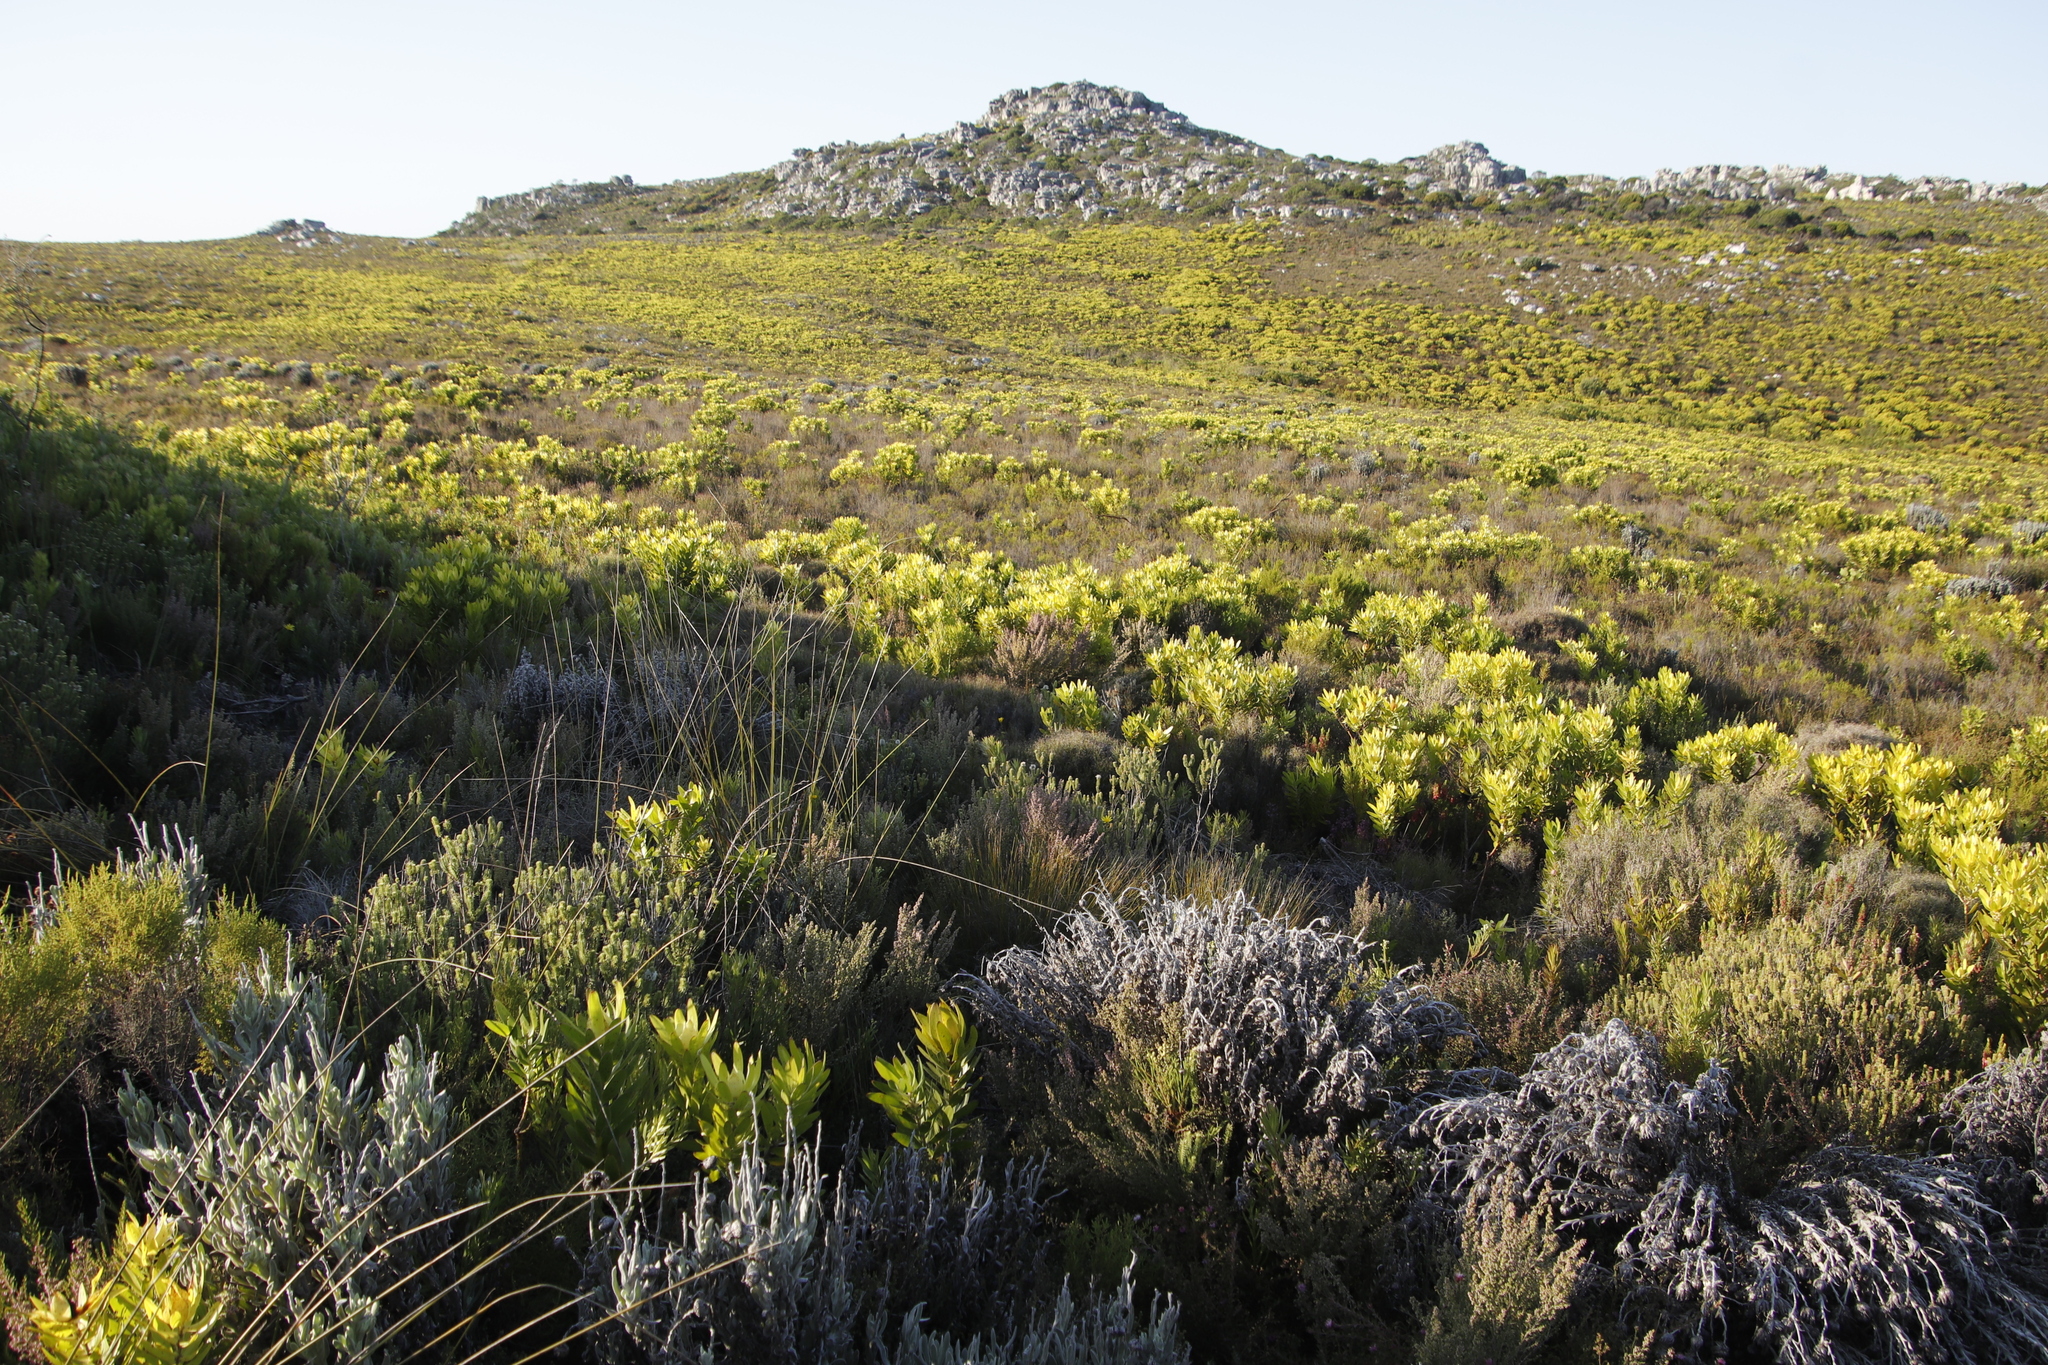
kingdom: Plantae
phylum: Tracheophyta
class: Magnoliopsida
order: Asterales
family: Asteraceae
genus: Syncarpha
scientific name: Syncarpha vestita
